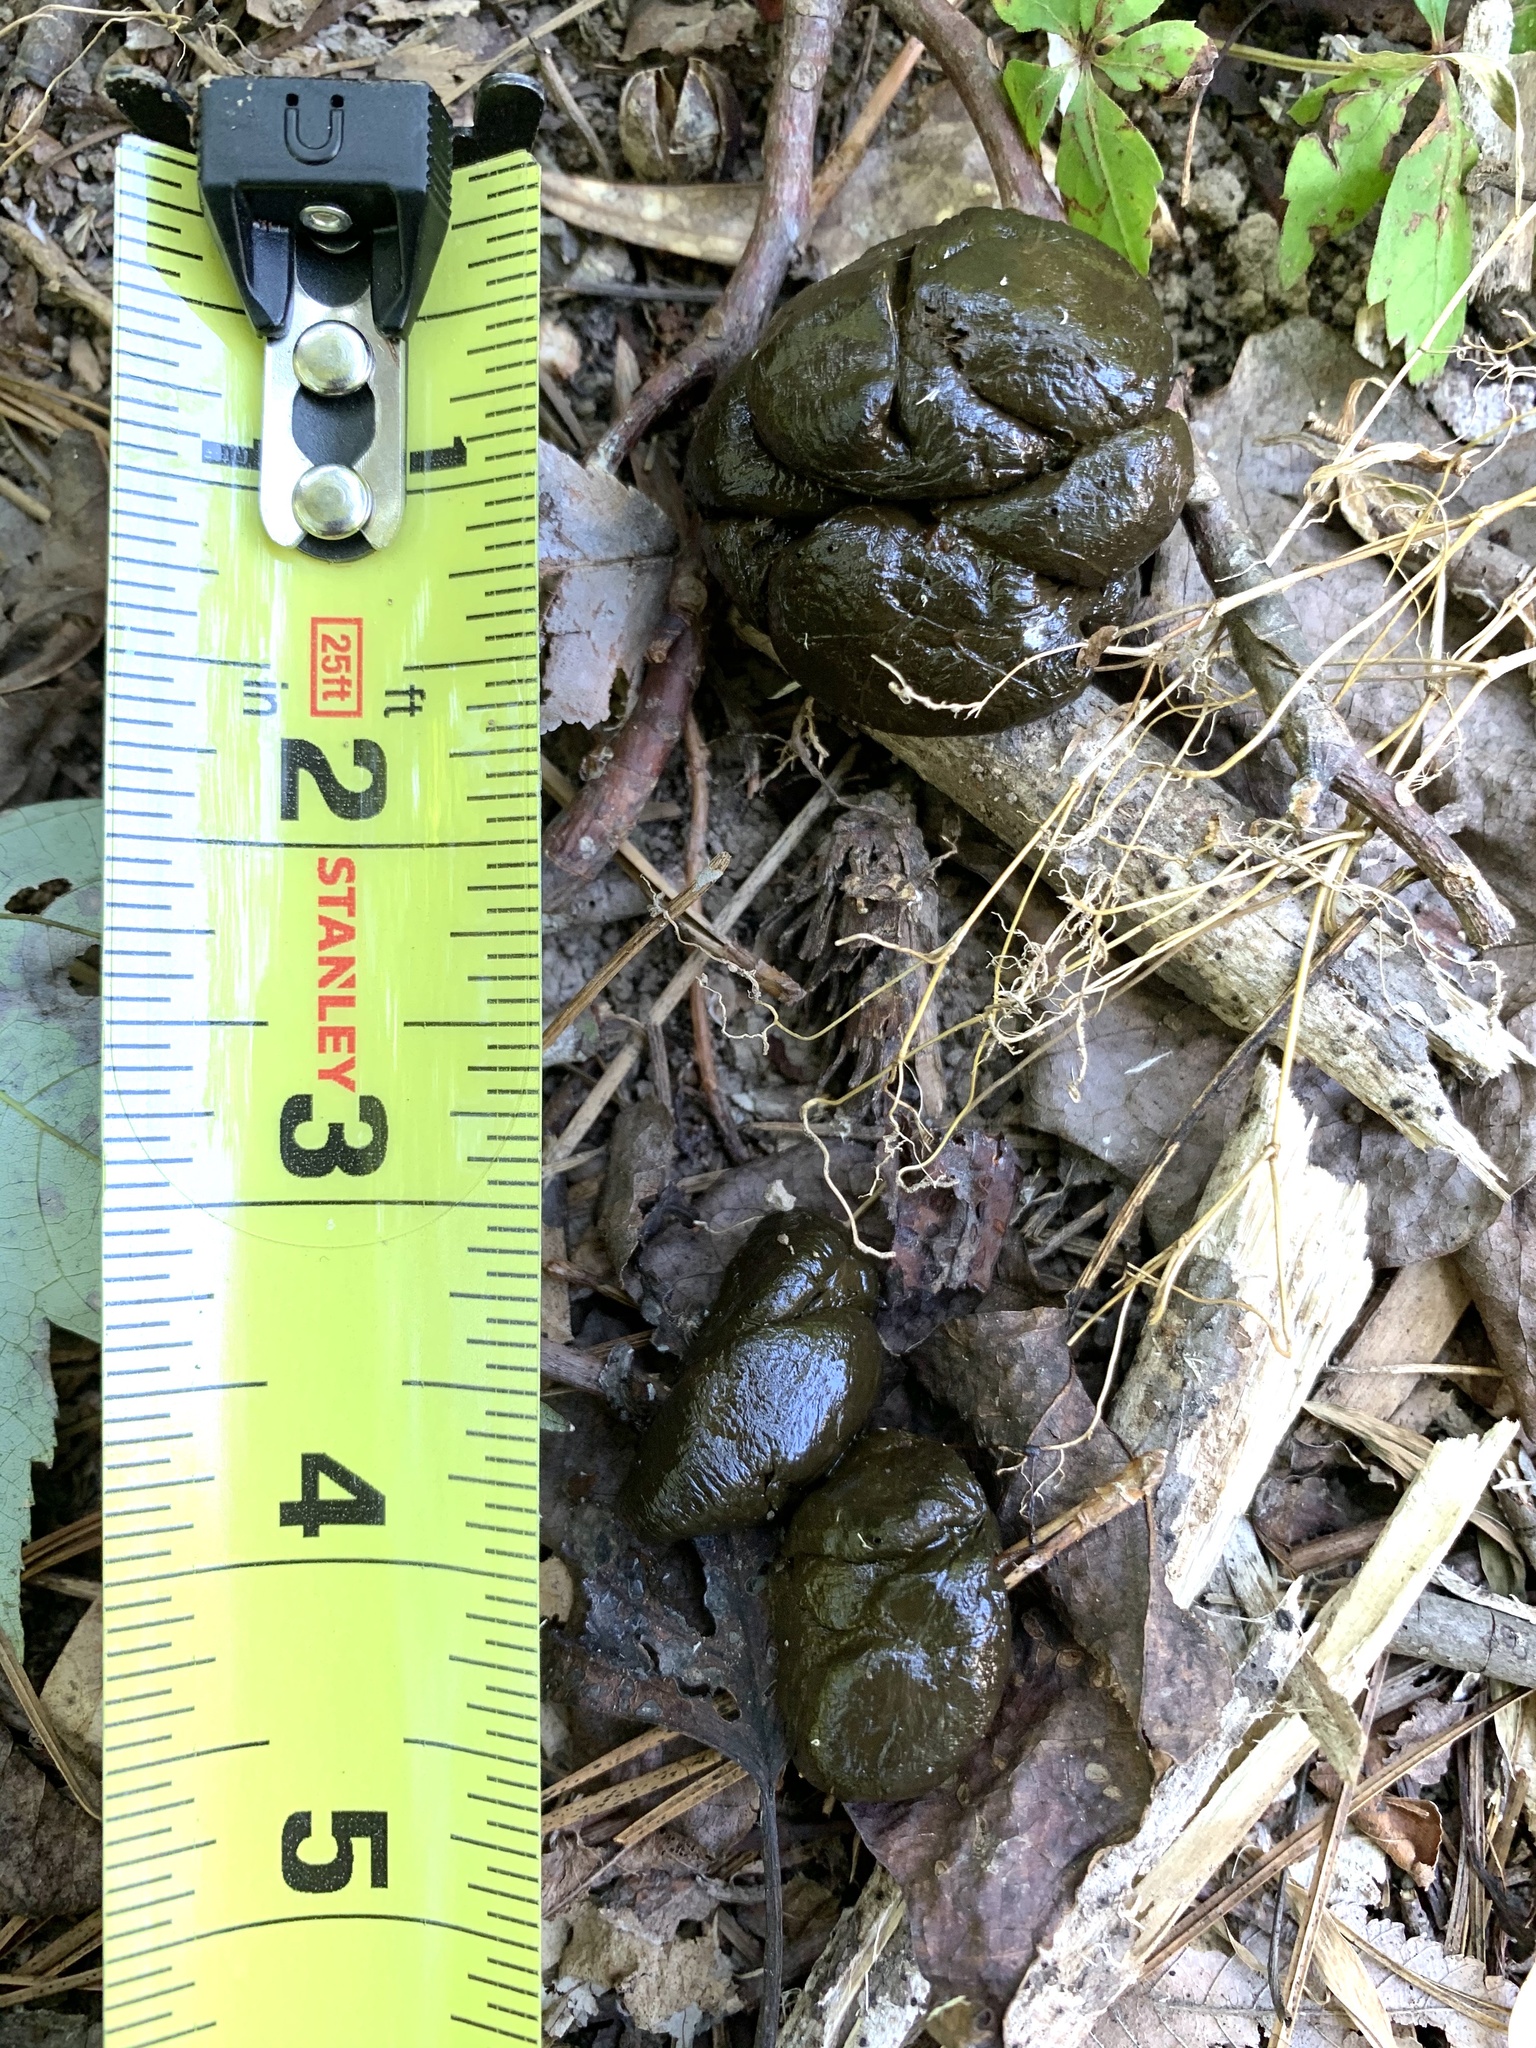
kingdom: Animalia
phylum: Chordata
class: Mammalia
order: Artiodactyla
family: Cervidae
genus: Odocoileus
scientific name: Odocoileus virginianus
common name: White-tailed deer
